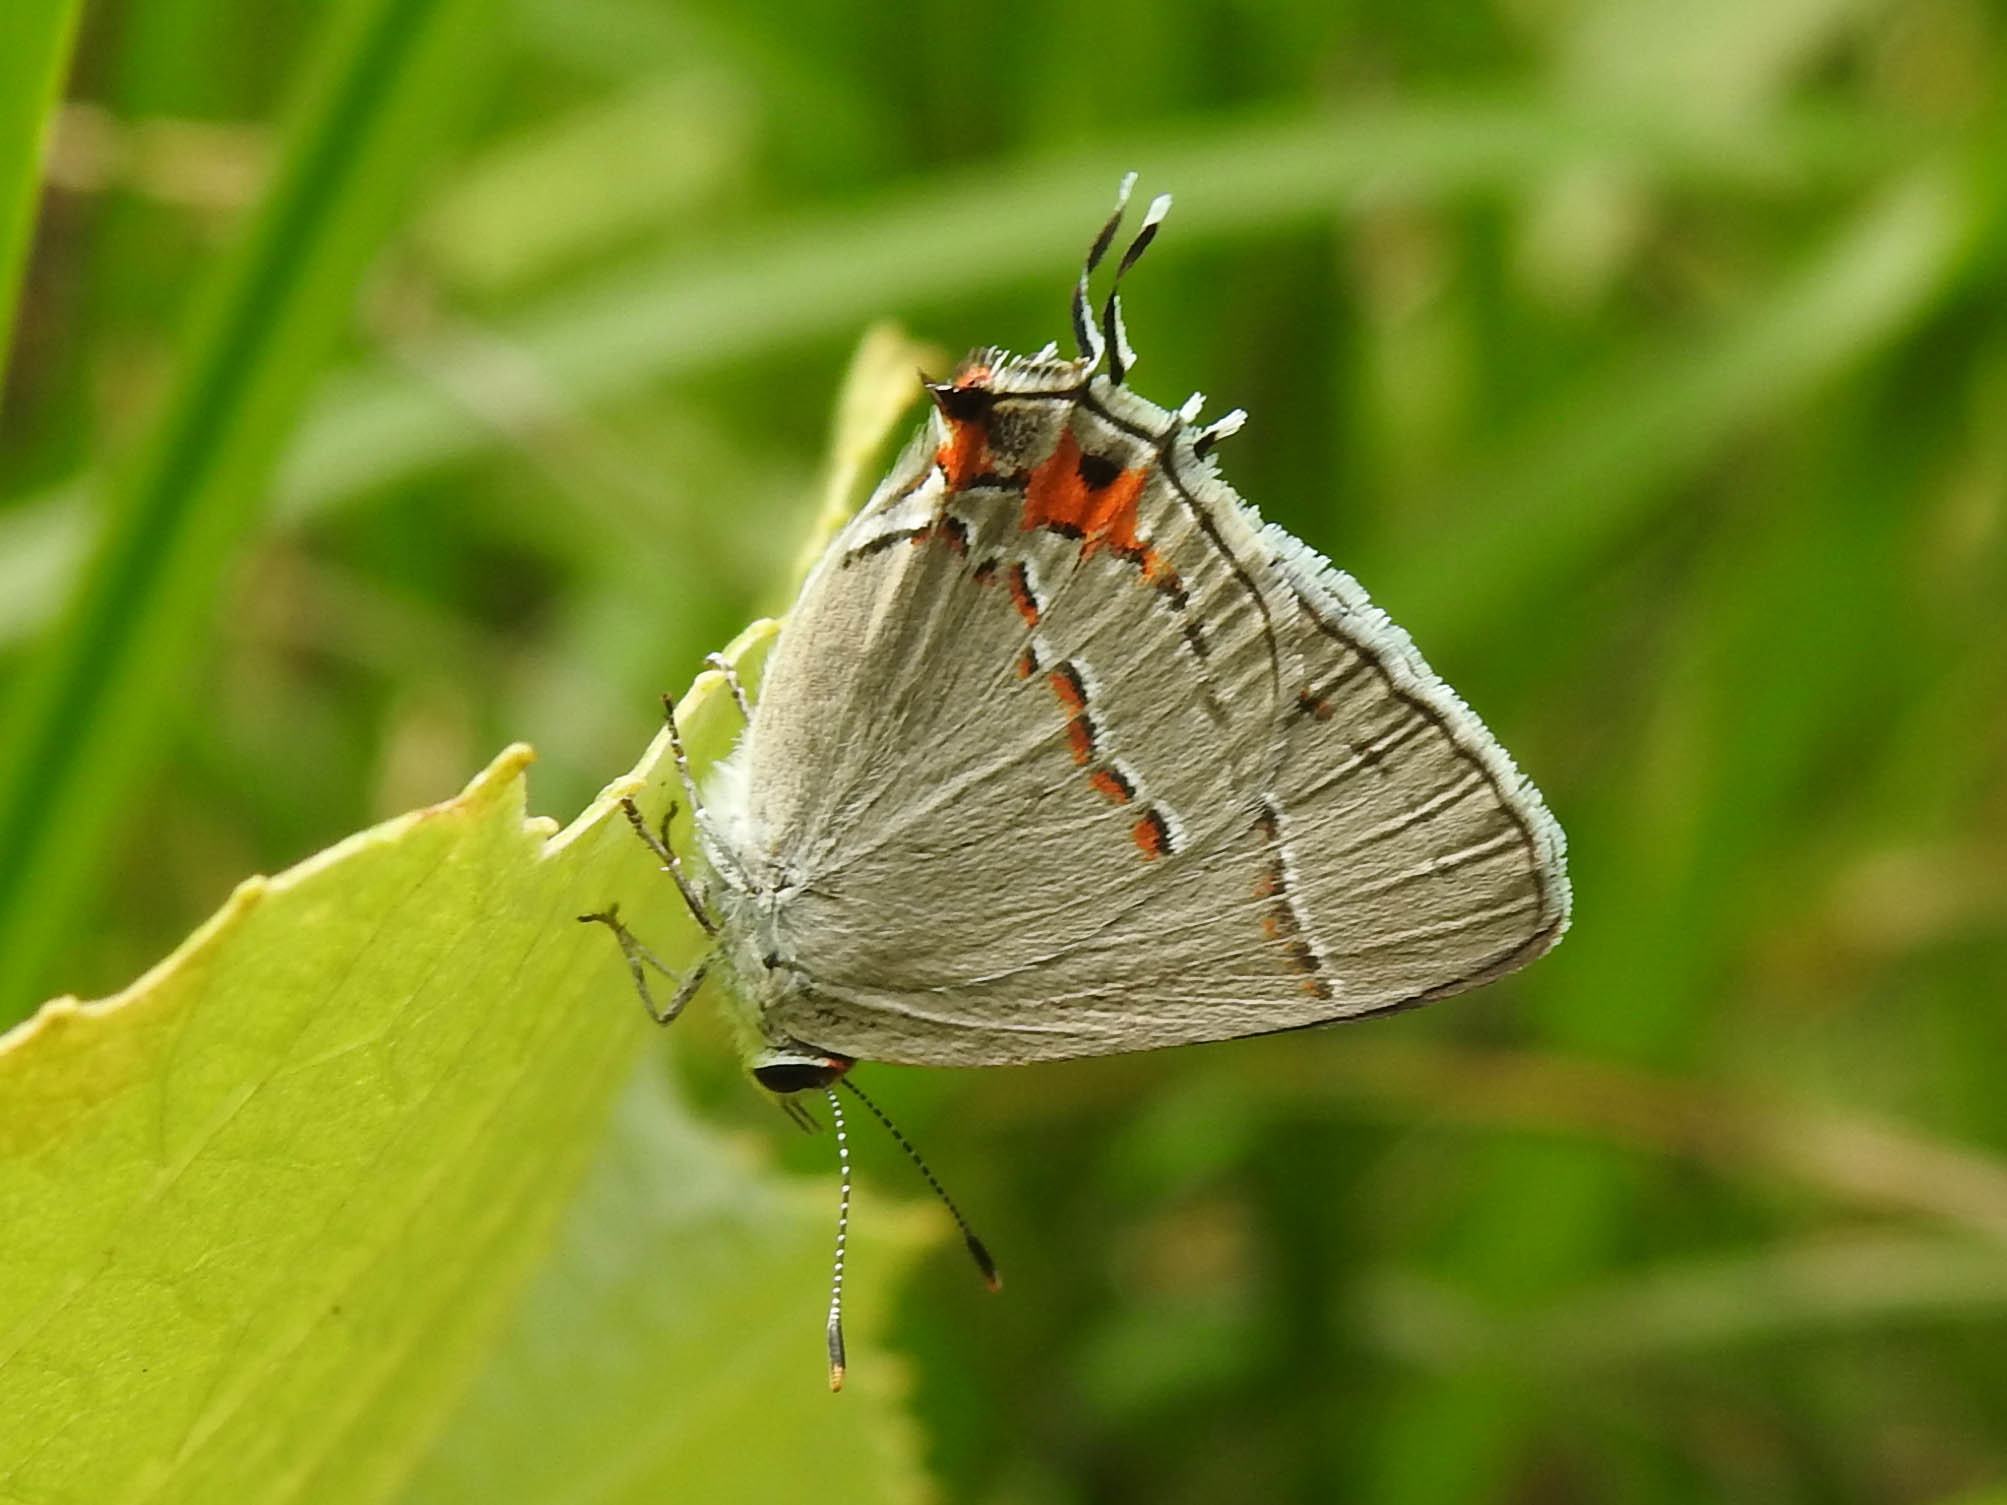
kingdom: Animalia
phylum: Arthropoda
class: Insecta
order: Lepidoptera
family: Lycaenidae
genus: Strymon
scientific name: Strymon melinus
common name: Gray hairstreak
